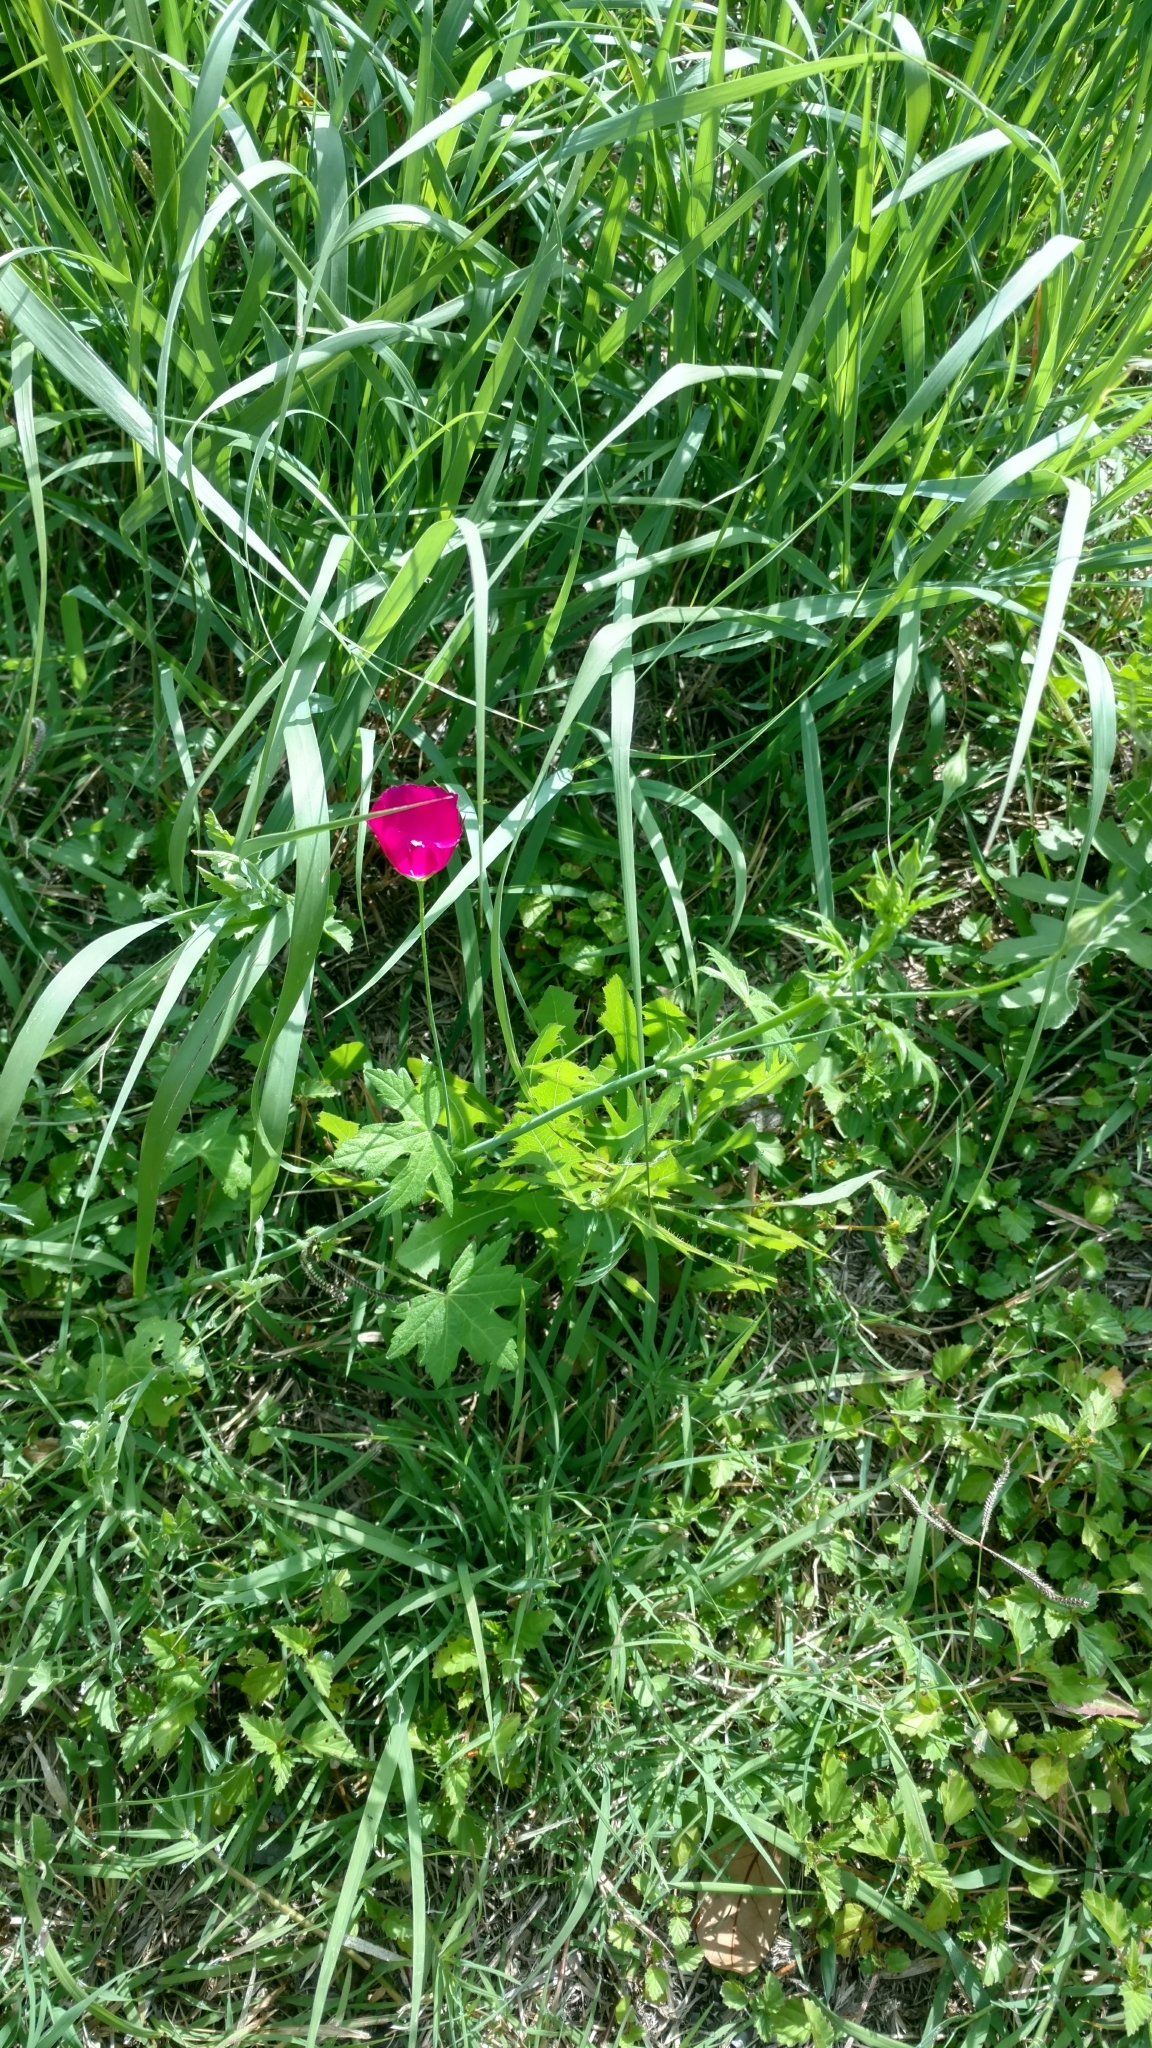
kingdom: Plantae
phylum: Tracheophyta
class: Magnoliopsida
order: Malvales
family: Malvaceae
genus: Callirhoe
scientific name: Callirhoe leiocarpa
